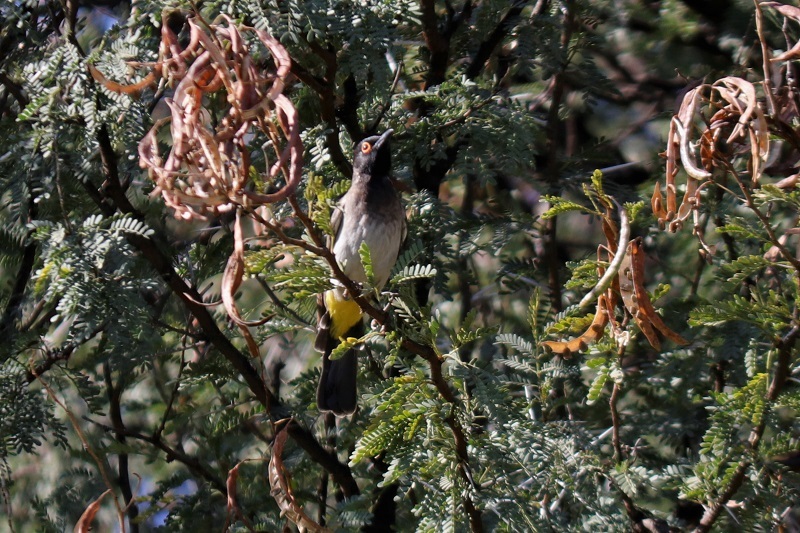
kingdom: Animalia
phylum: Chordata
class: Aves
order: Passeriformes
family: Pycnonotidae
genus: Pycnonotus
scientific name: Pycnonotus nigricans
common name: African red-eyed bulbul
